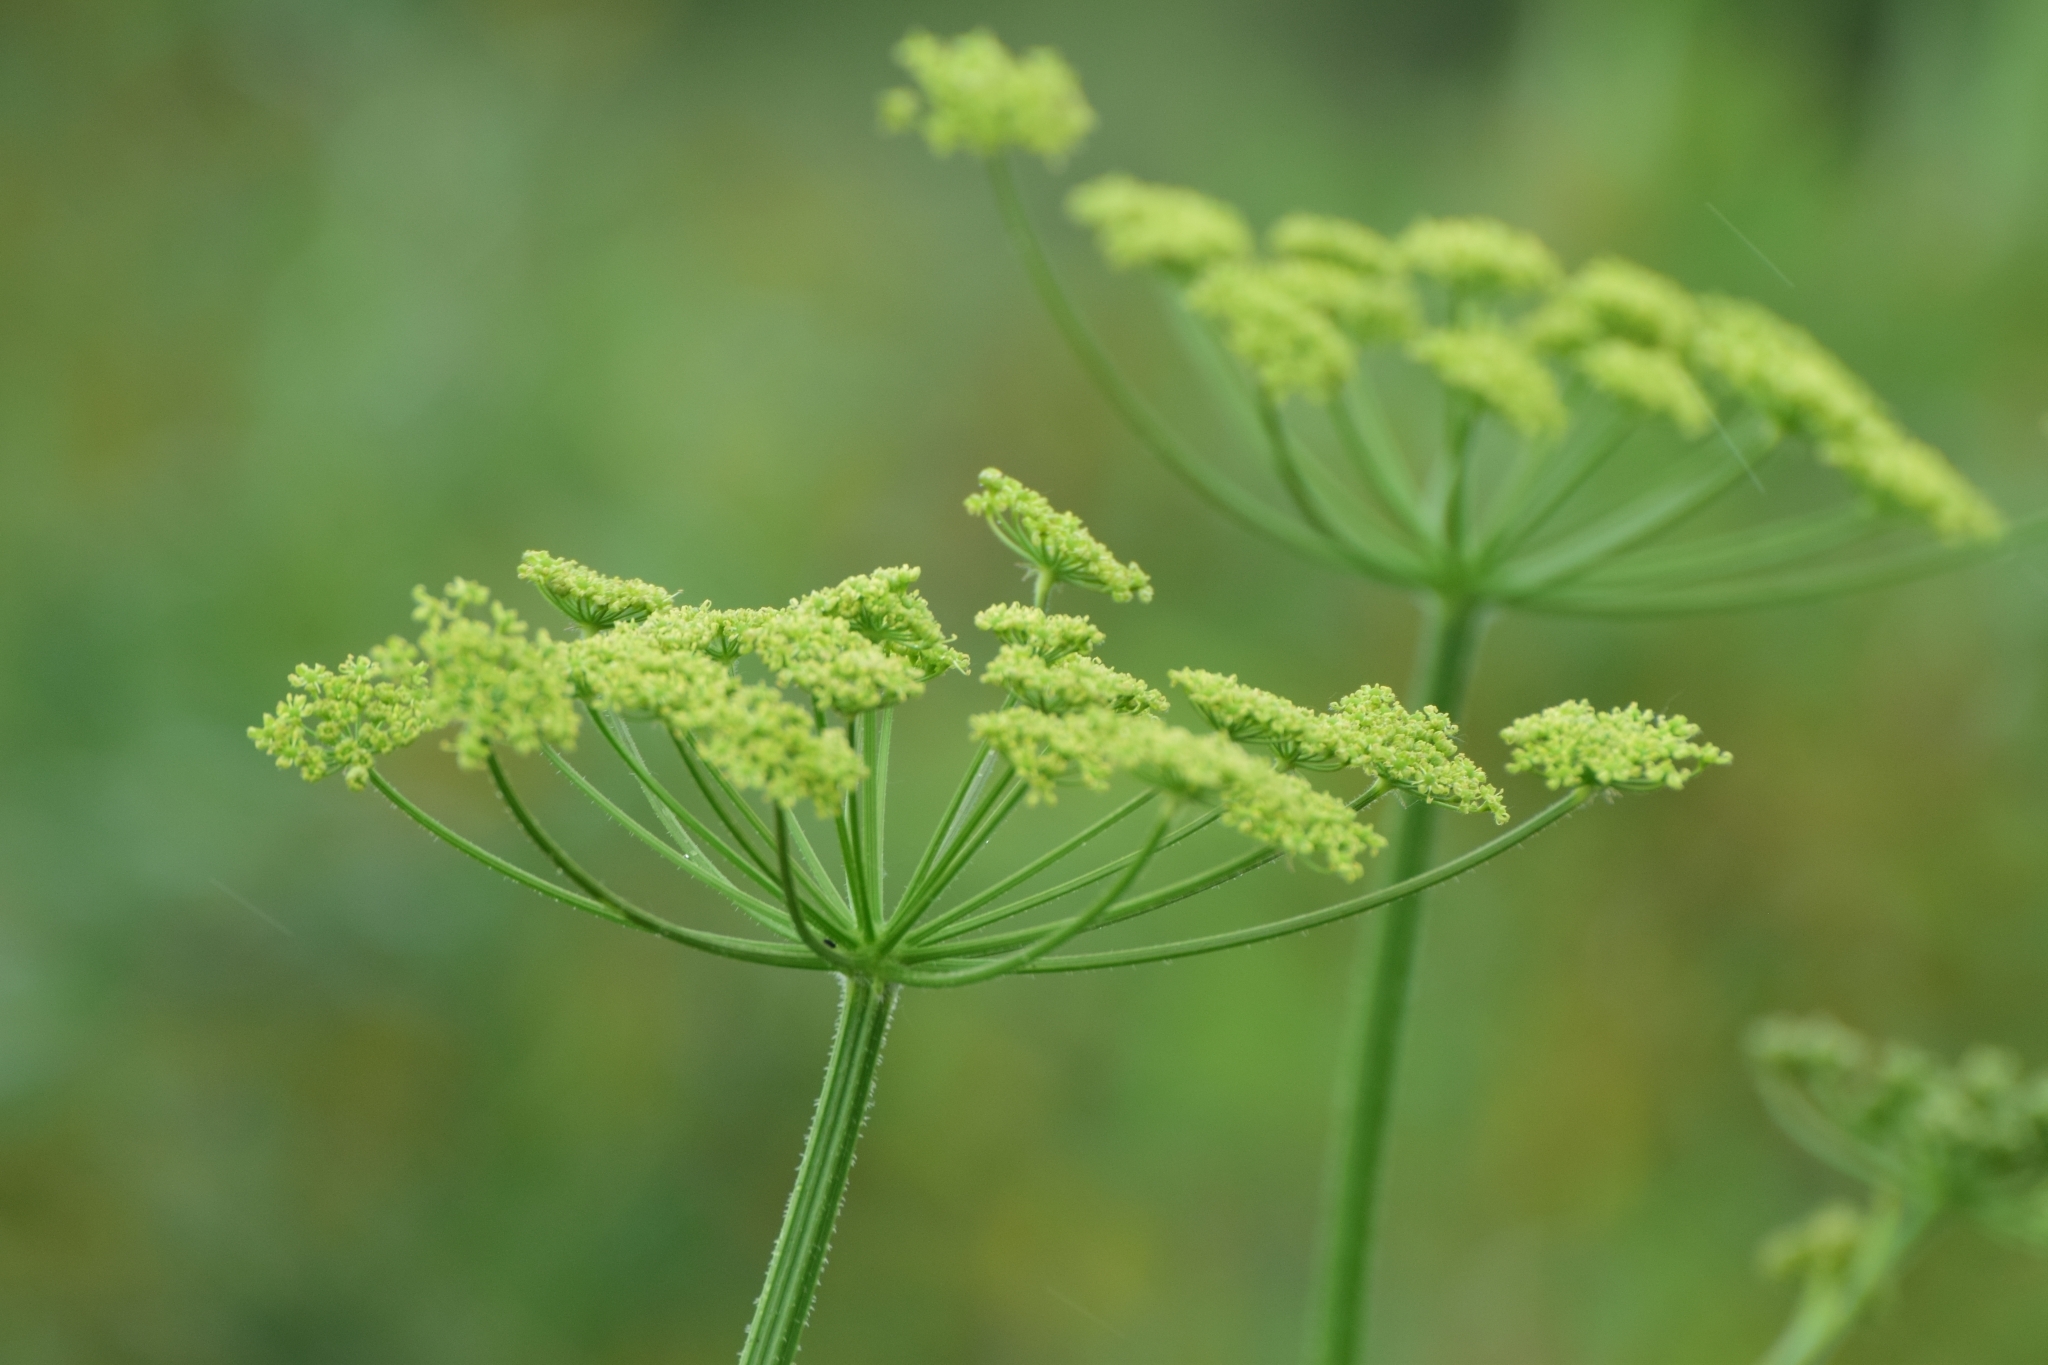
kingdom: Plantae
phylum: Tracheophyta
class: Magnoliopsida
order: Apiales
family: Apiaceae
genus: Heracleum
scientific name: Heracleum sphondylium
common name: Hogweed
